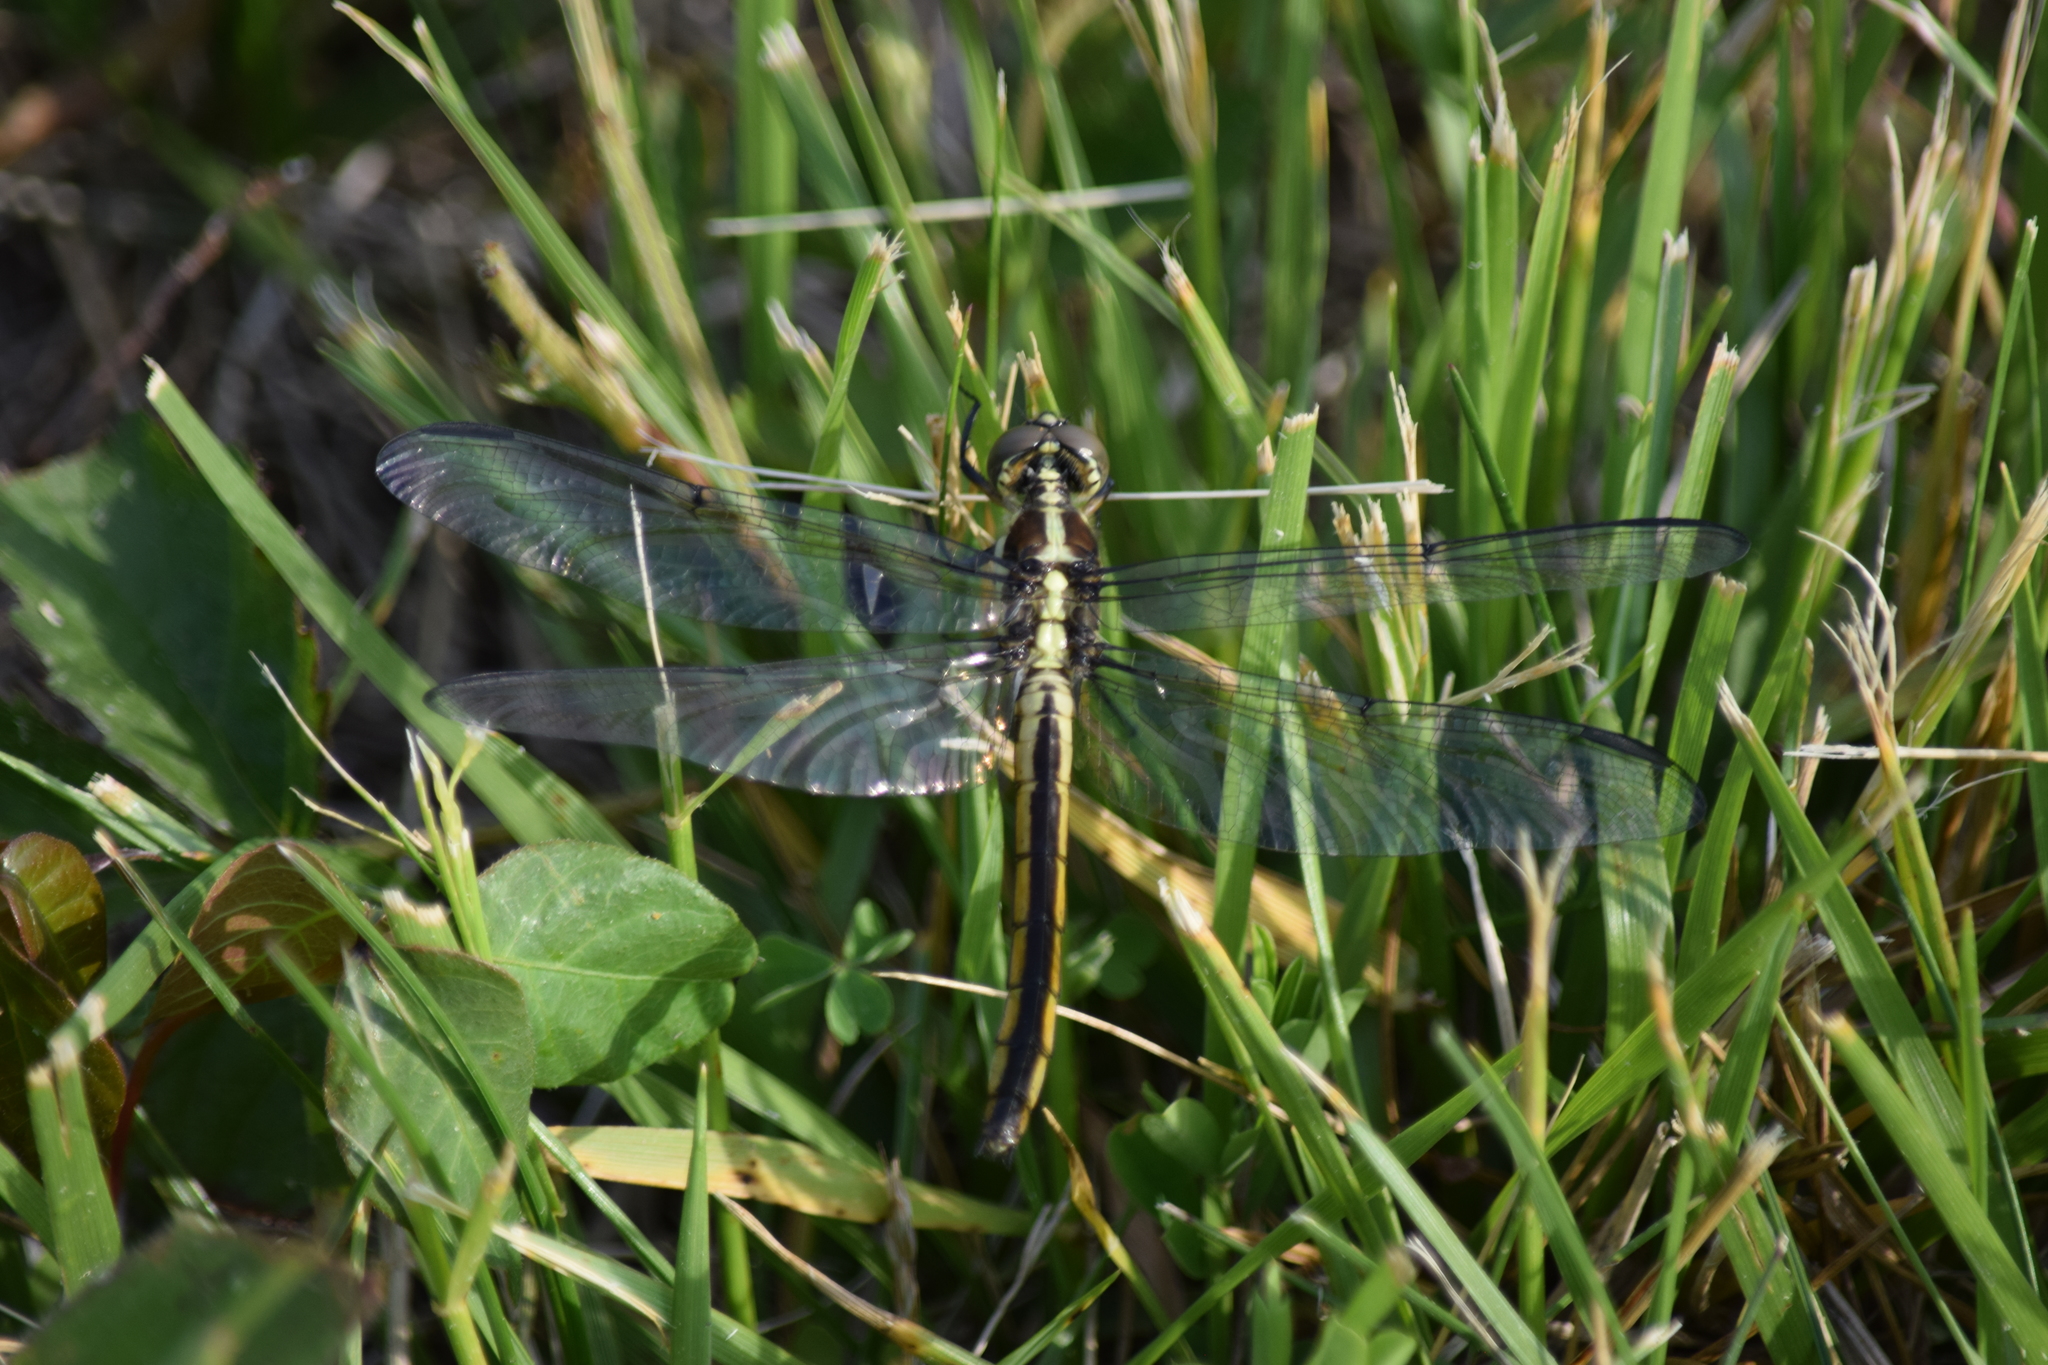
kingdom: Animalia
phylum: Arthropoda
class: Insecta
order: Odonata
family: Libellulidae
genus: Libellula
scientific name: Libellula incesta
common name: Slaty skimmer
